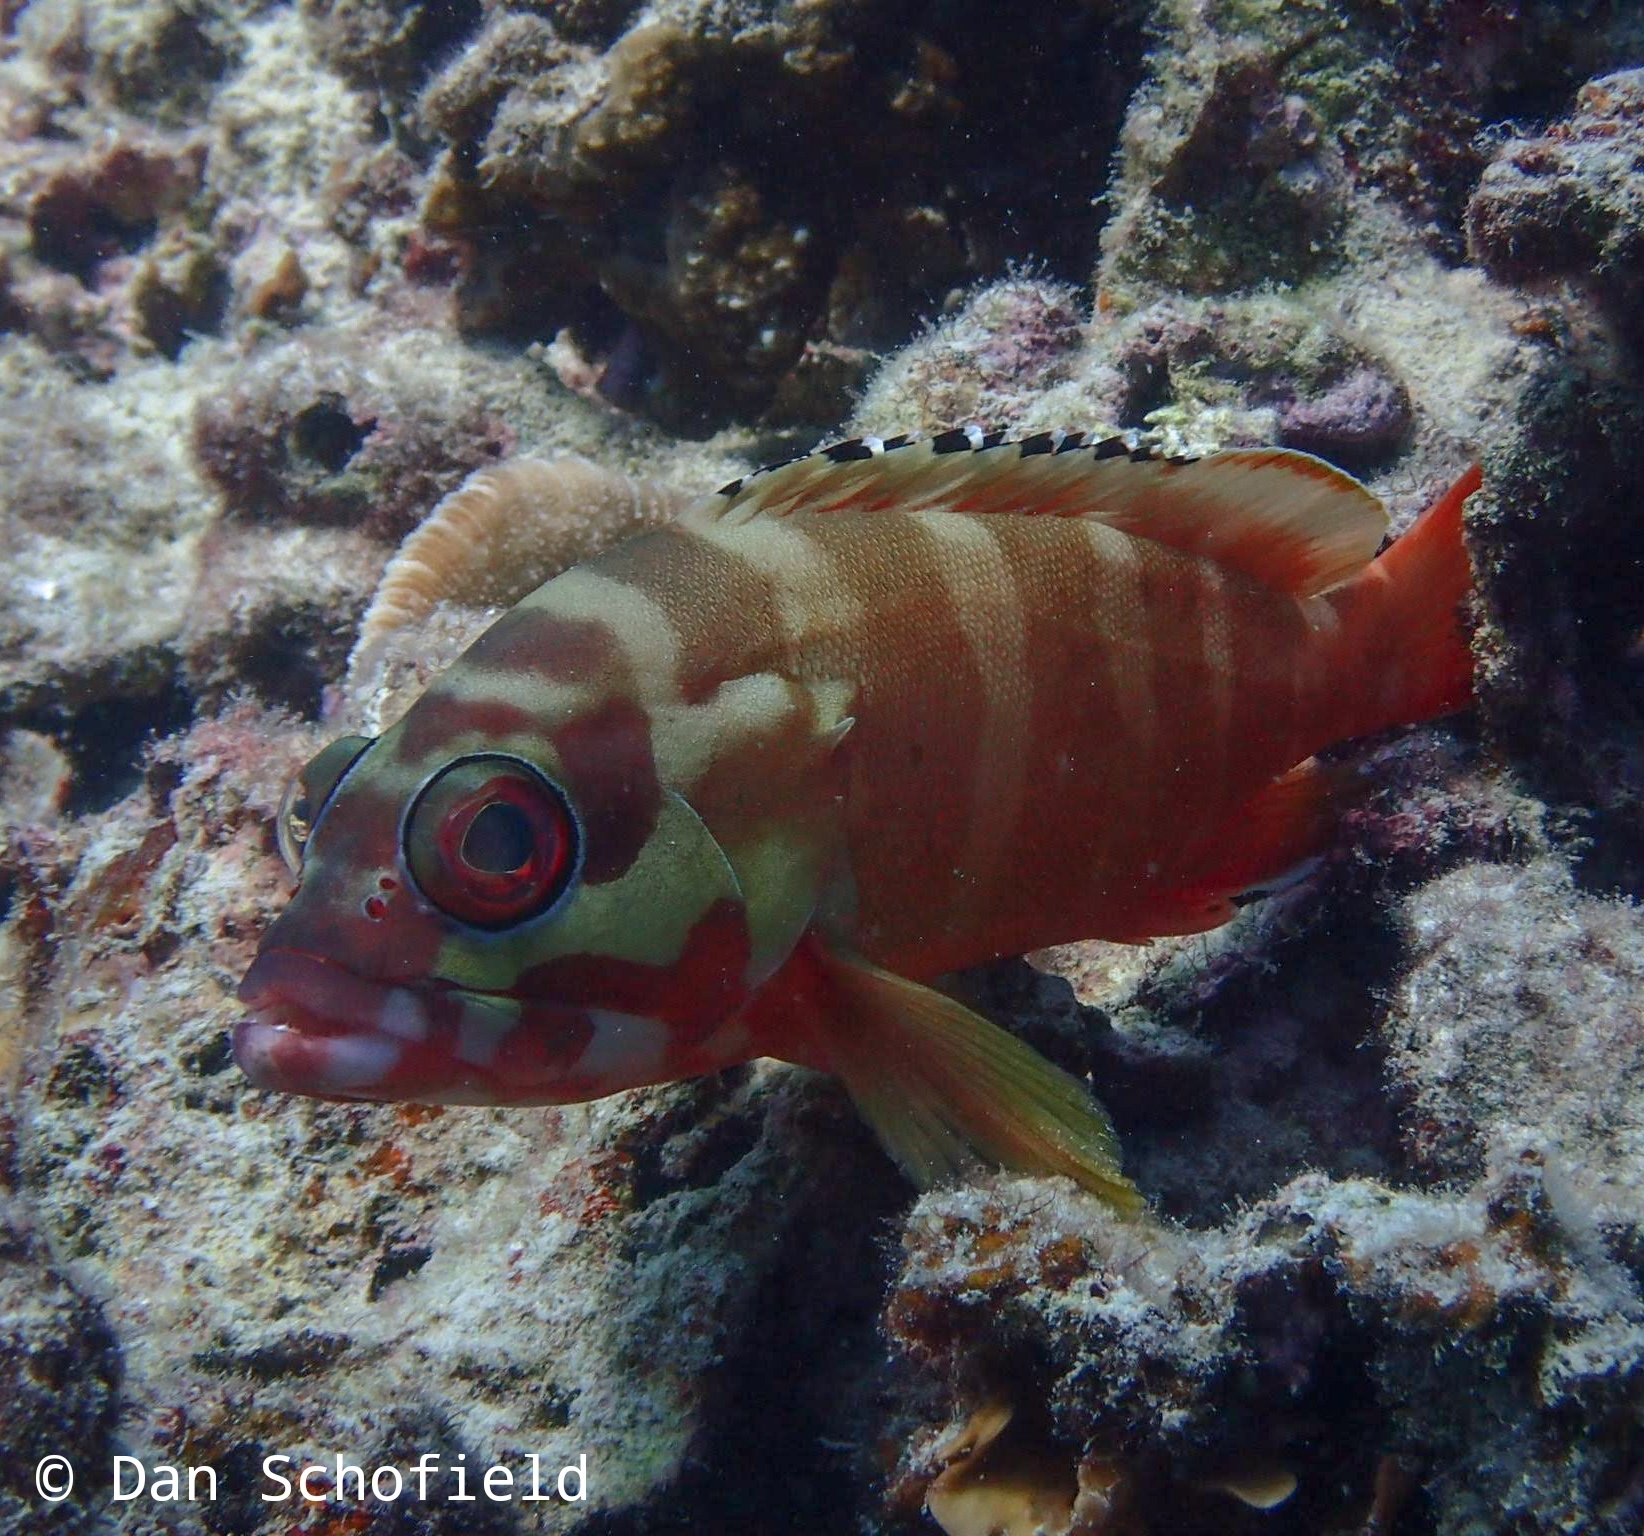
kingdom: Animalia
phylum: Chordata
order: Perciformes
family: Serranidae
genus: Epinephelus
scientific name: Epinephelus fasciatus
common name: Blacktip grouper
